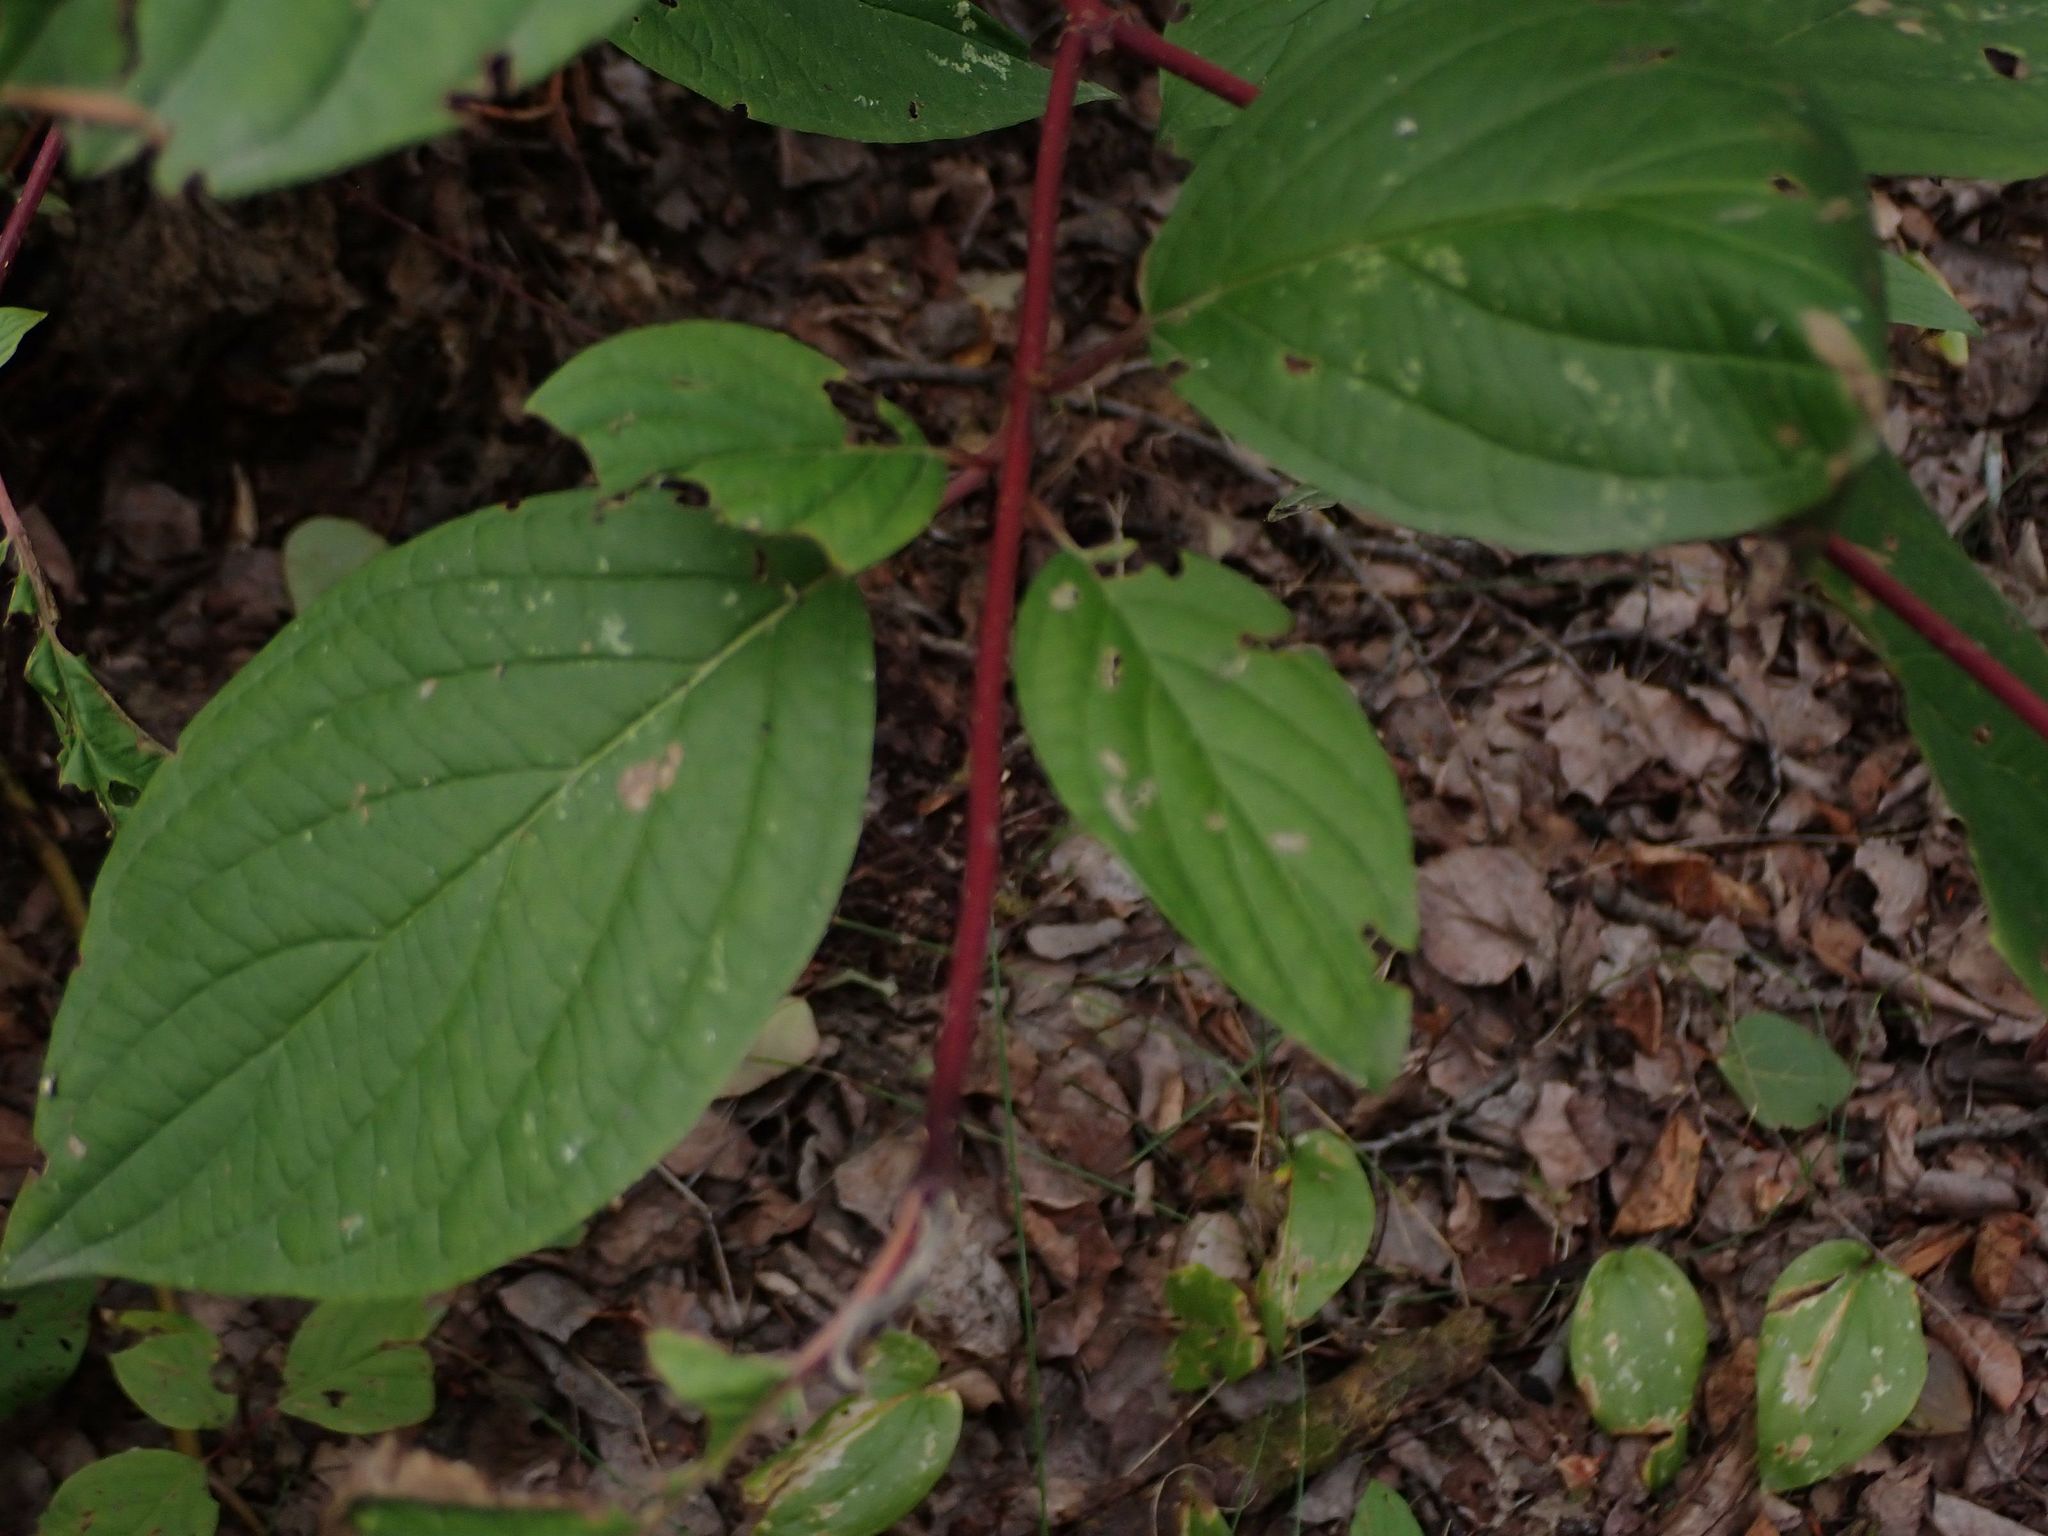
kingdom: Plantae
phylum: Tracheophyta
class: Magnoliopsida
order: Cornales
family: Cornaceae
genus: Cornus
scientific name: Cornus sericea
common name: Red-osier dogwood
